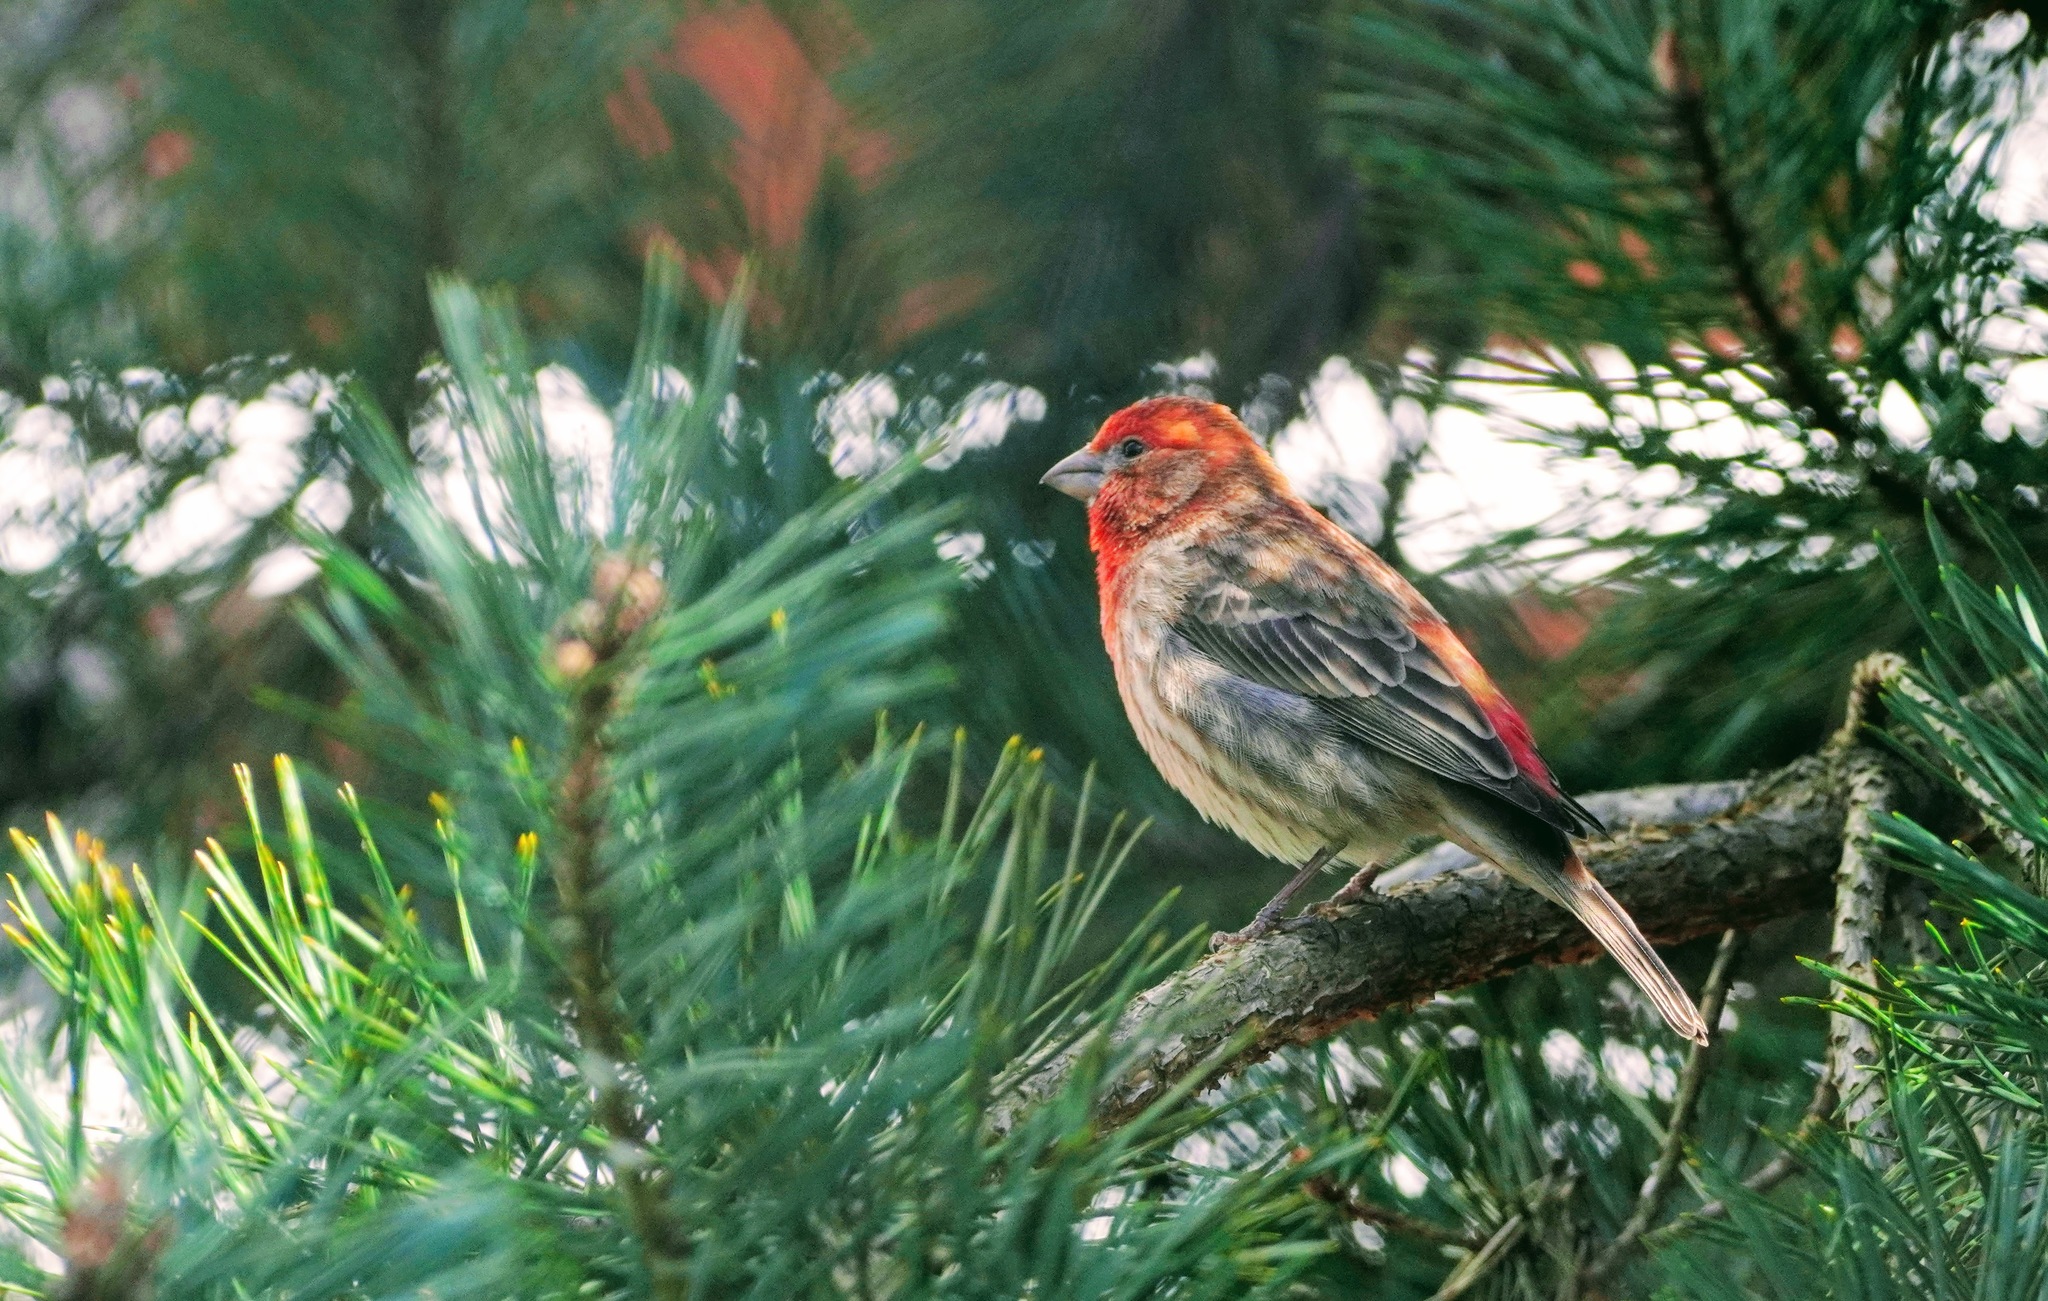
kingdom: Animalia
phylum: Chordata
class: Aves
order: Passeriformes
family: Fringillidae
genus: Haemorhous
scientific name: Haemorhous mexicanus
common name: House finch
